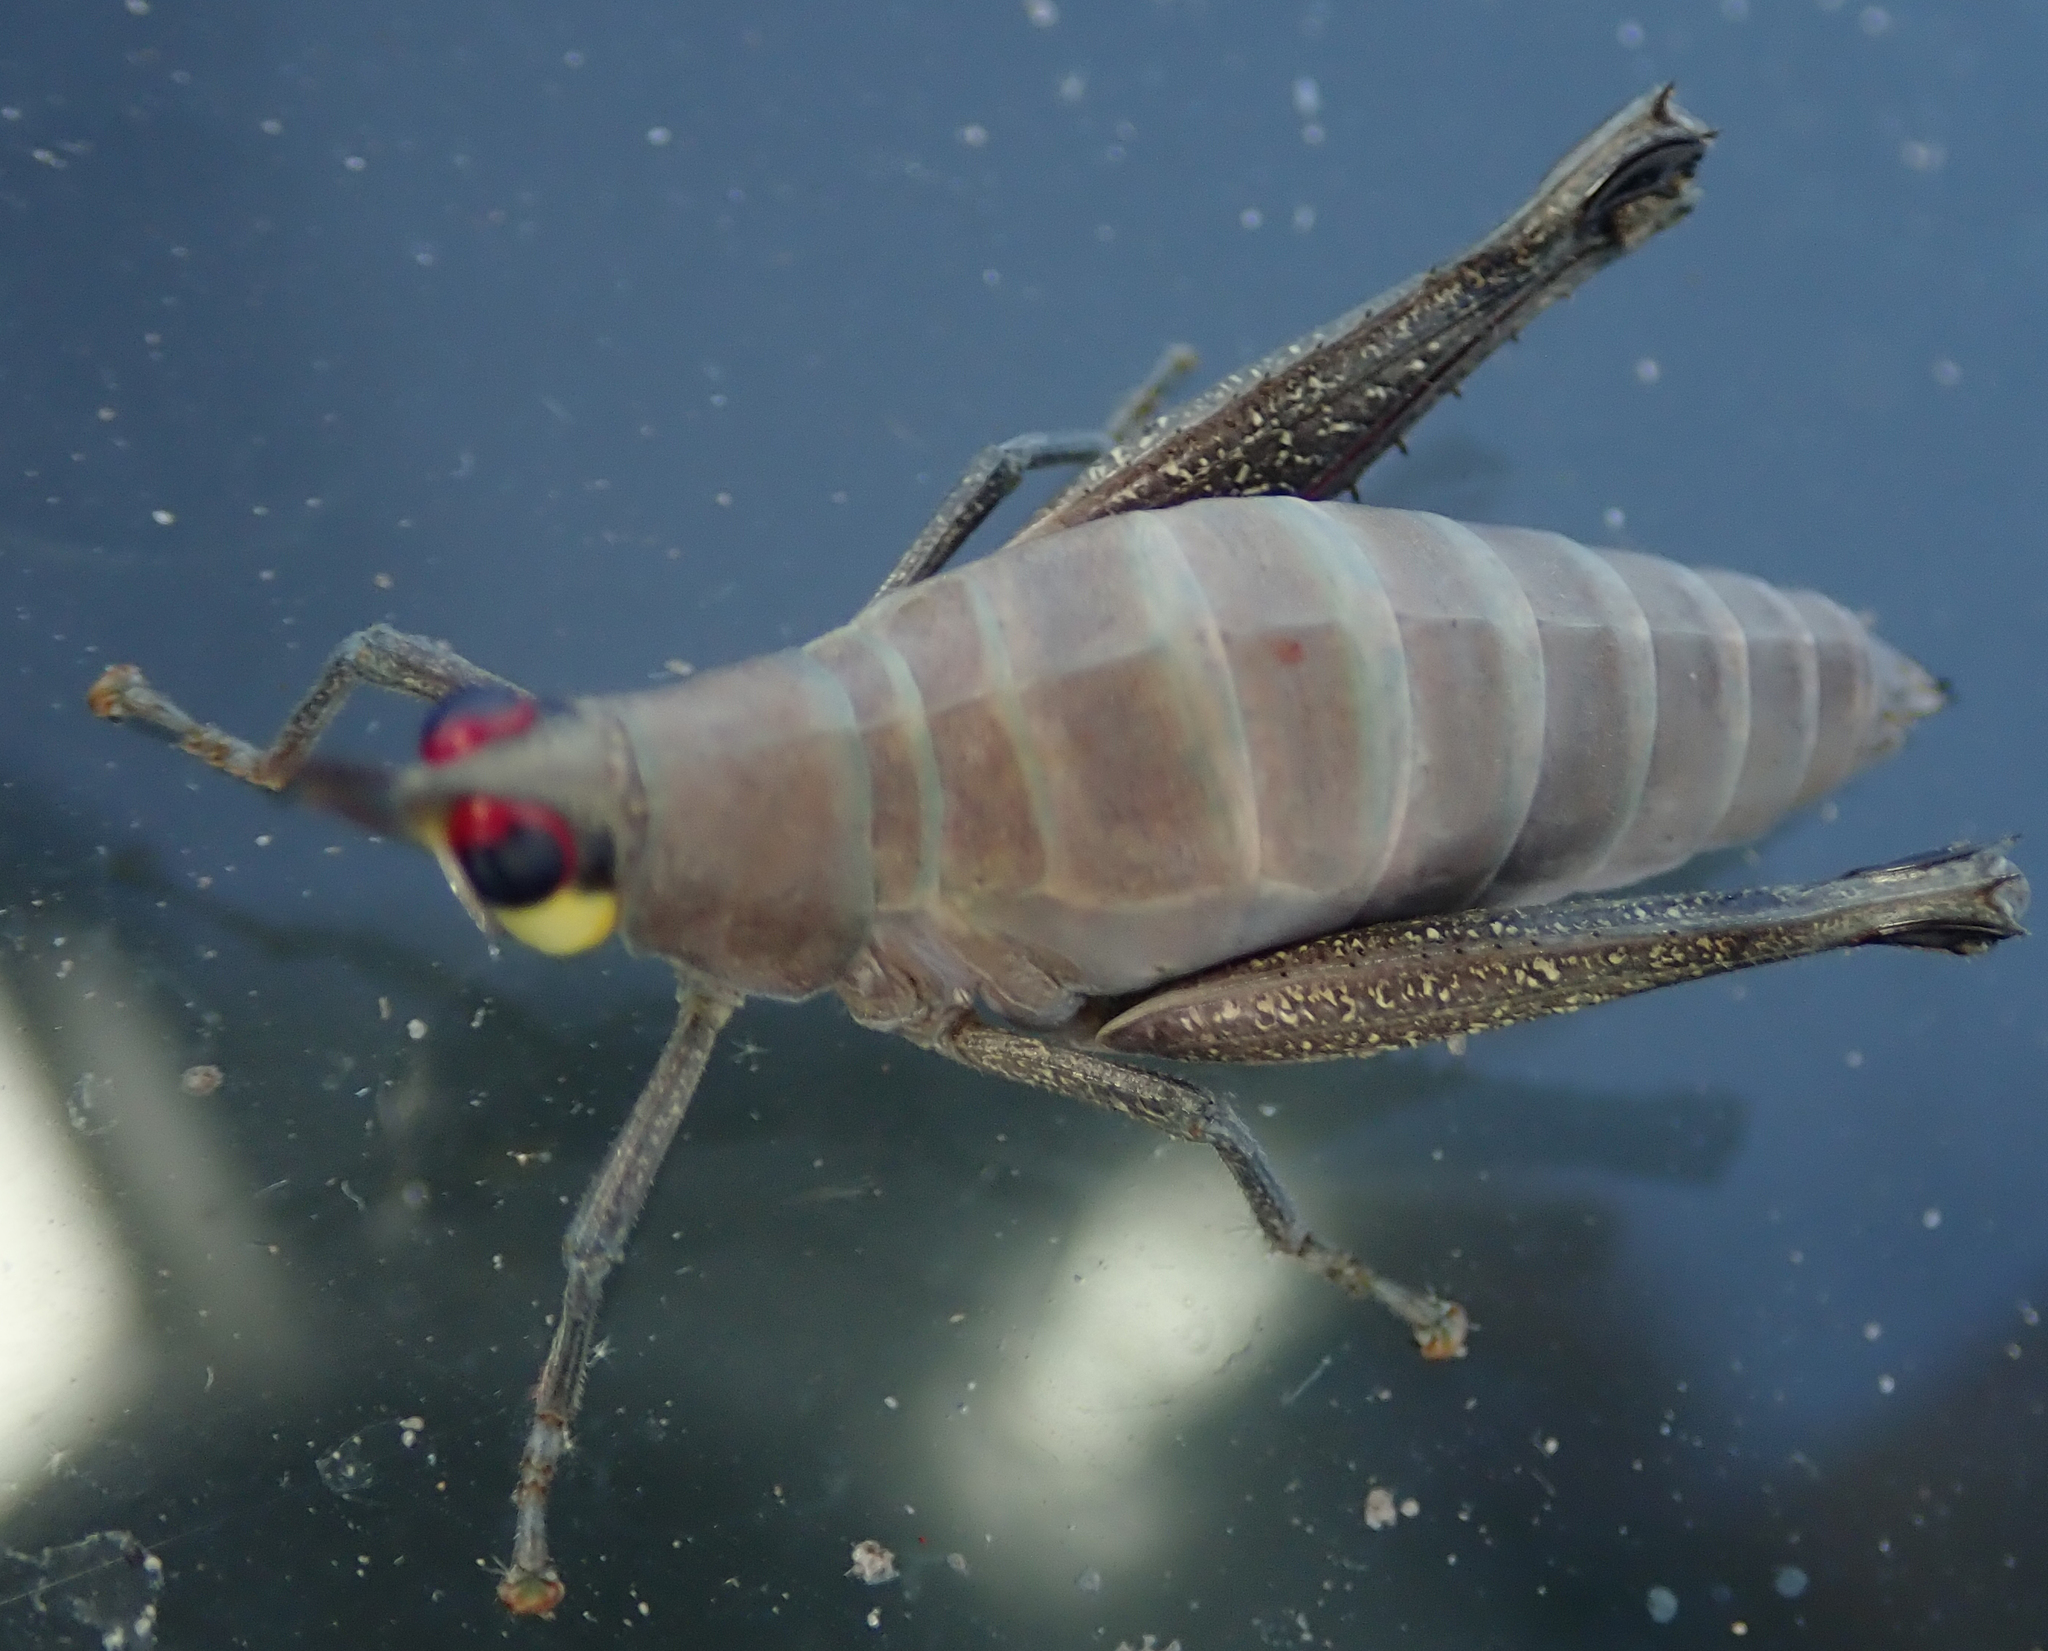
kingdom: Animalia
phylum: Arthropoda
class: Insecta
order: Orthoptera
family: Thericleidae
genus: Pseudothericles
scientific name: Pseudothericles jallae
